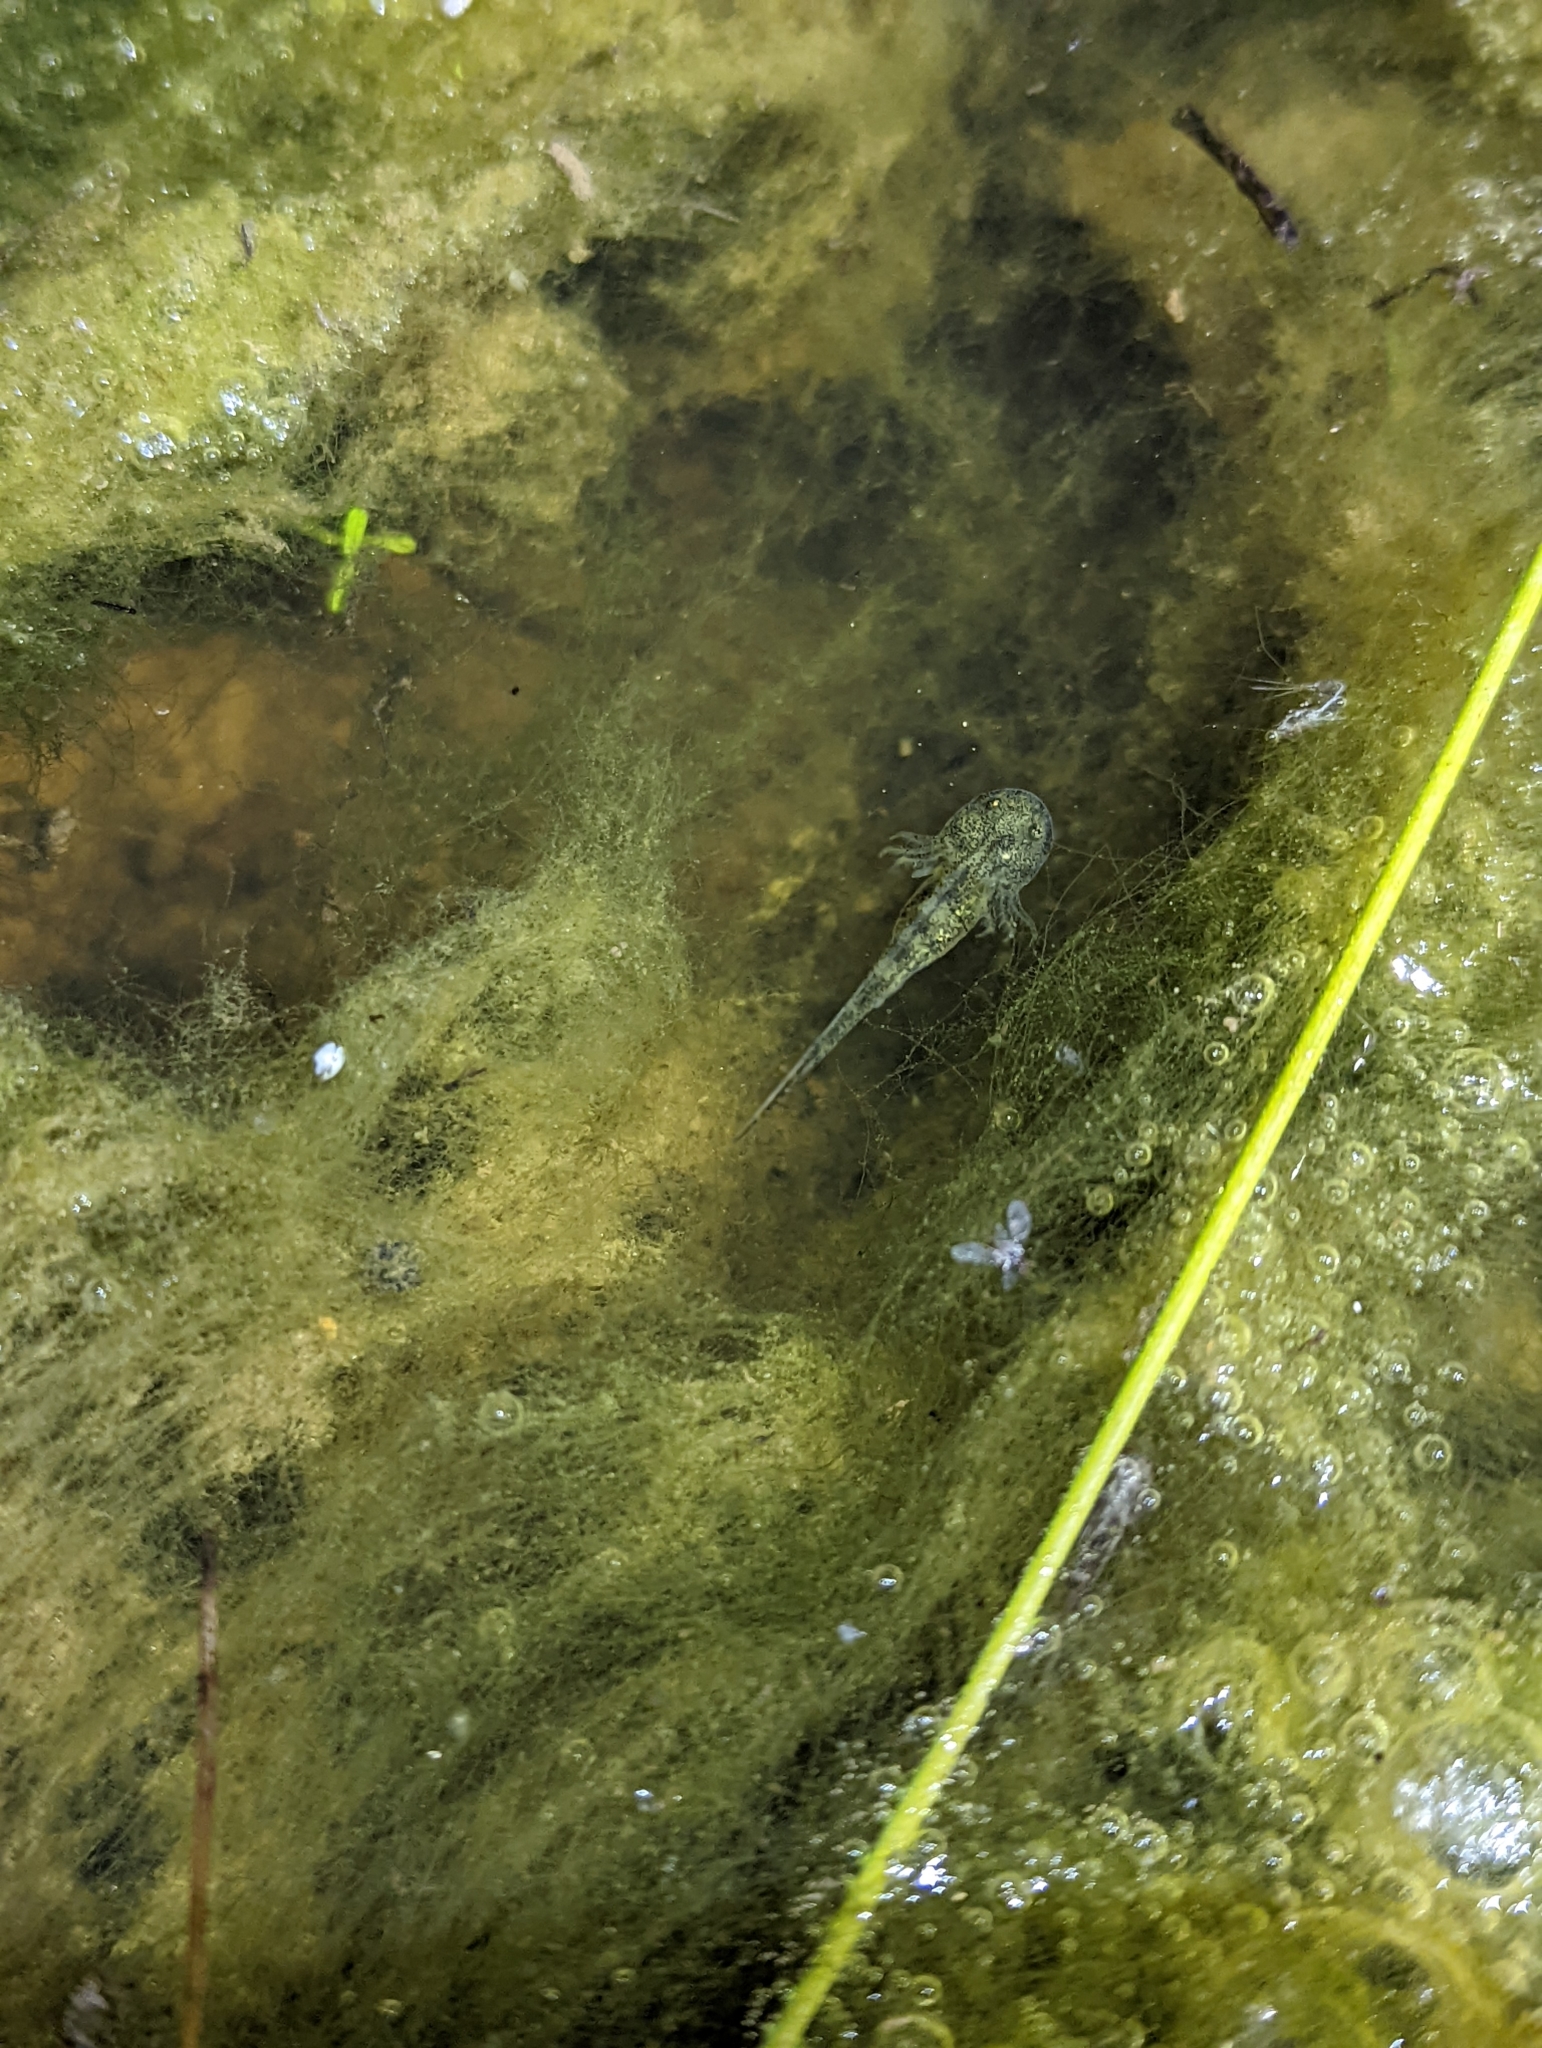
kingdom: Animalia
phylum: Chordata
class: Amphibia
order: Caudata
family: Ambystomatidae
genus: Ambystoma
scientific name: Ambystoma californiense
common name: California tiger salamander
